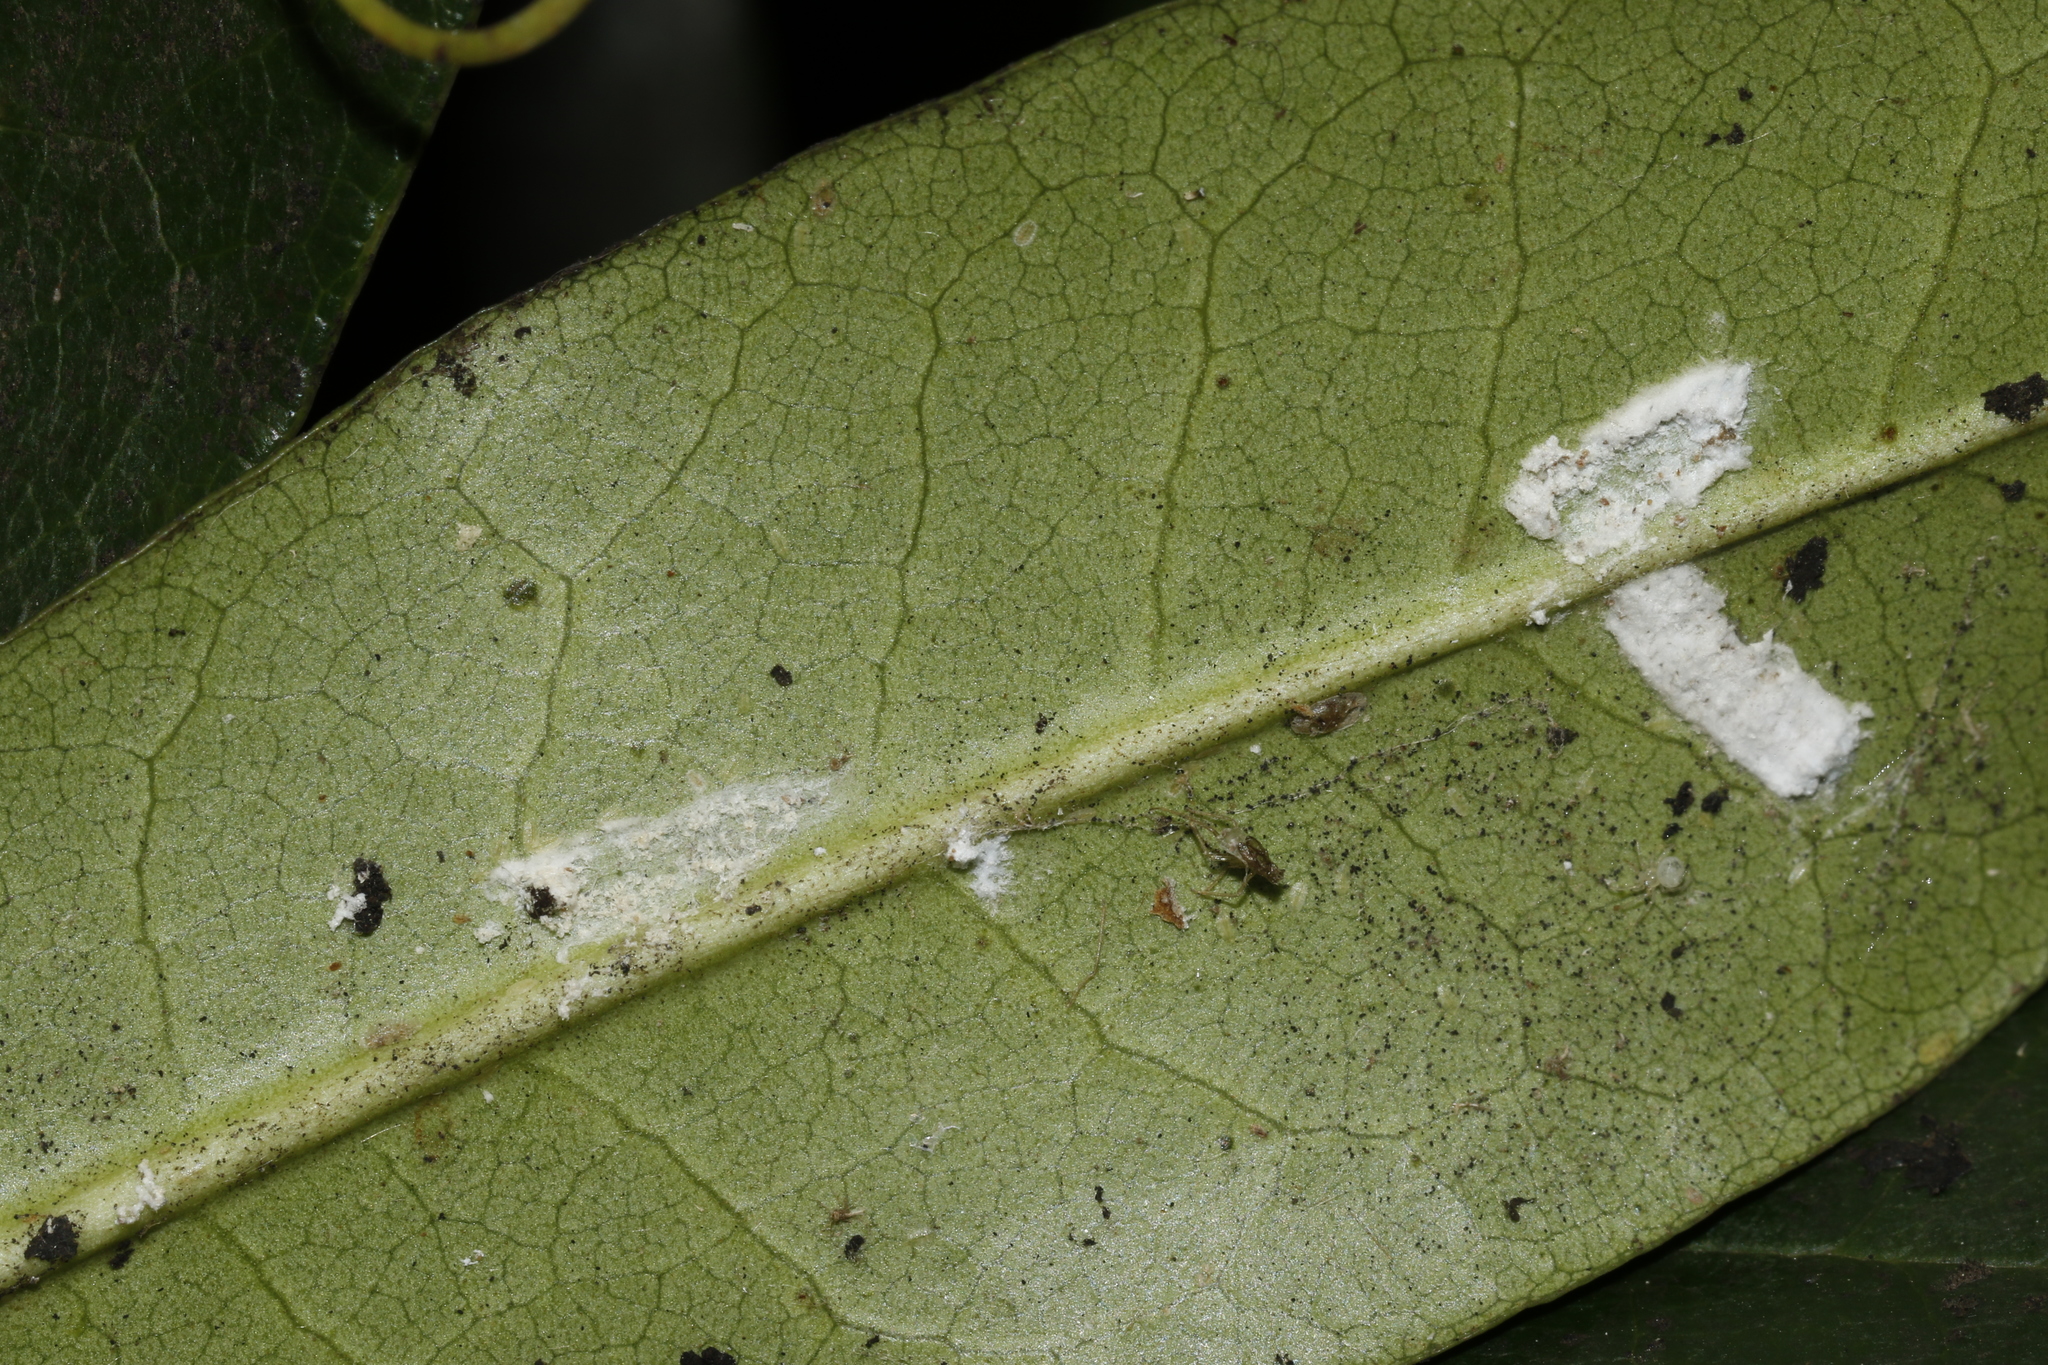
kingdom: Animalia
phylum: Arthropoda
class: Insecta
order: Hemiptera
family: Coccidae
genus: Pulvinaria
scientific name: Pulvinaria floccifera
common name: Cottony camellia scale
